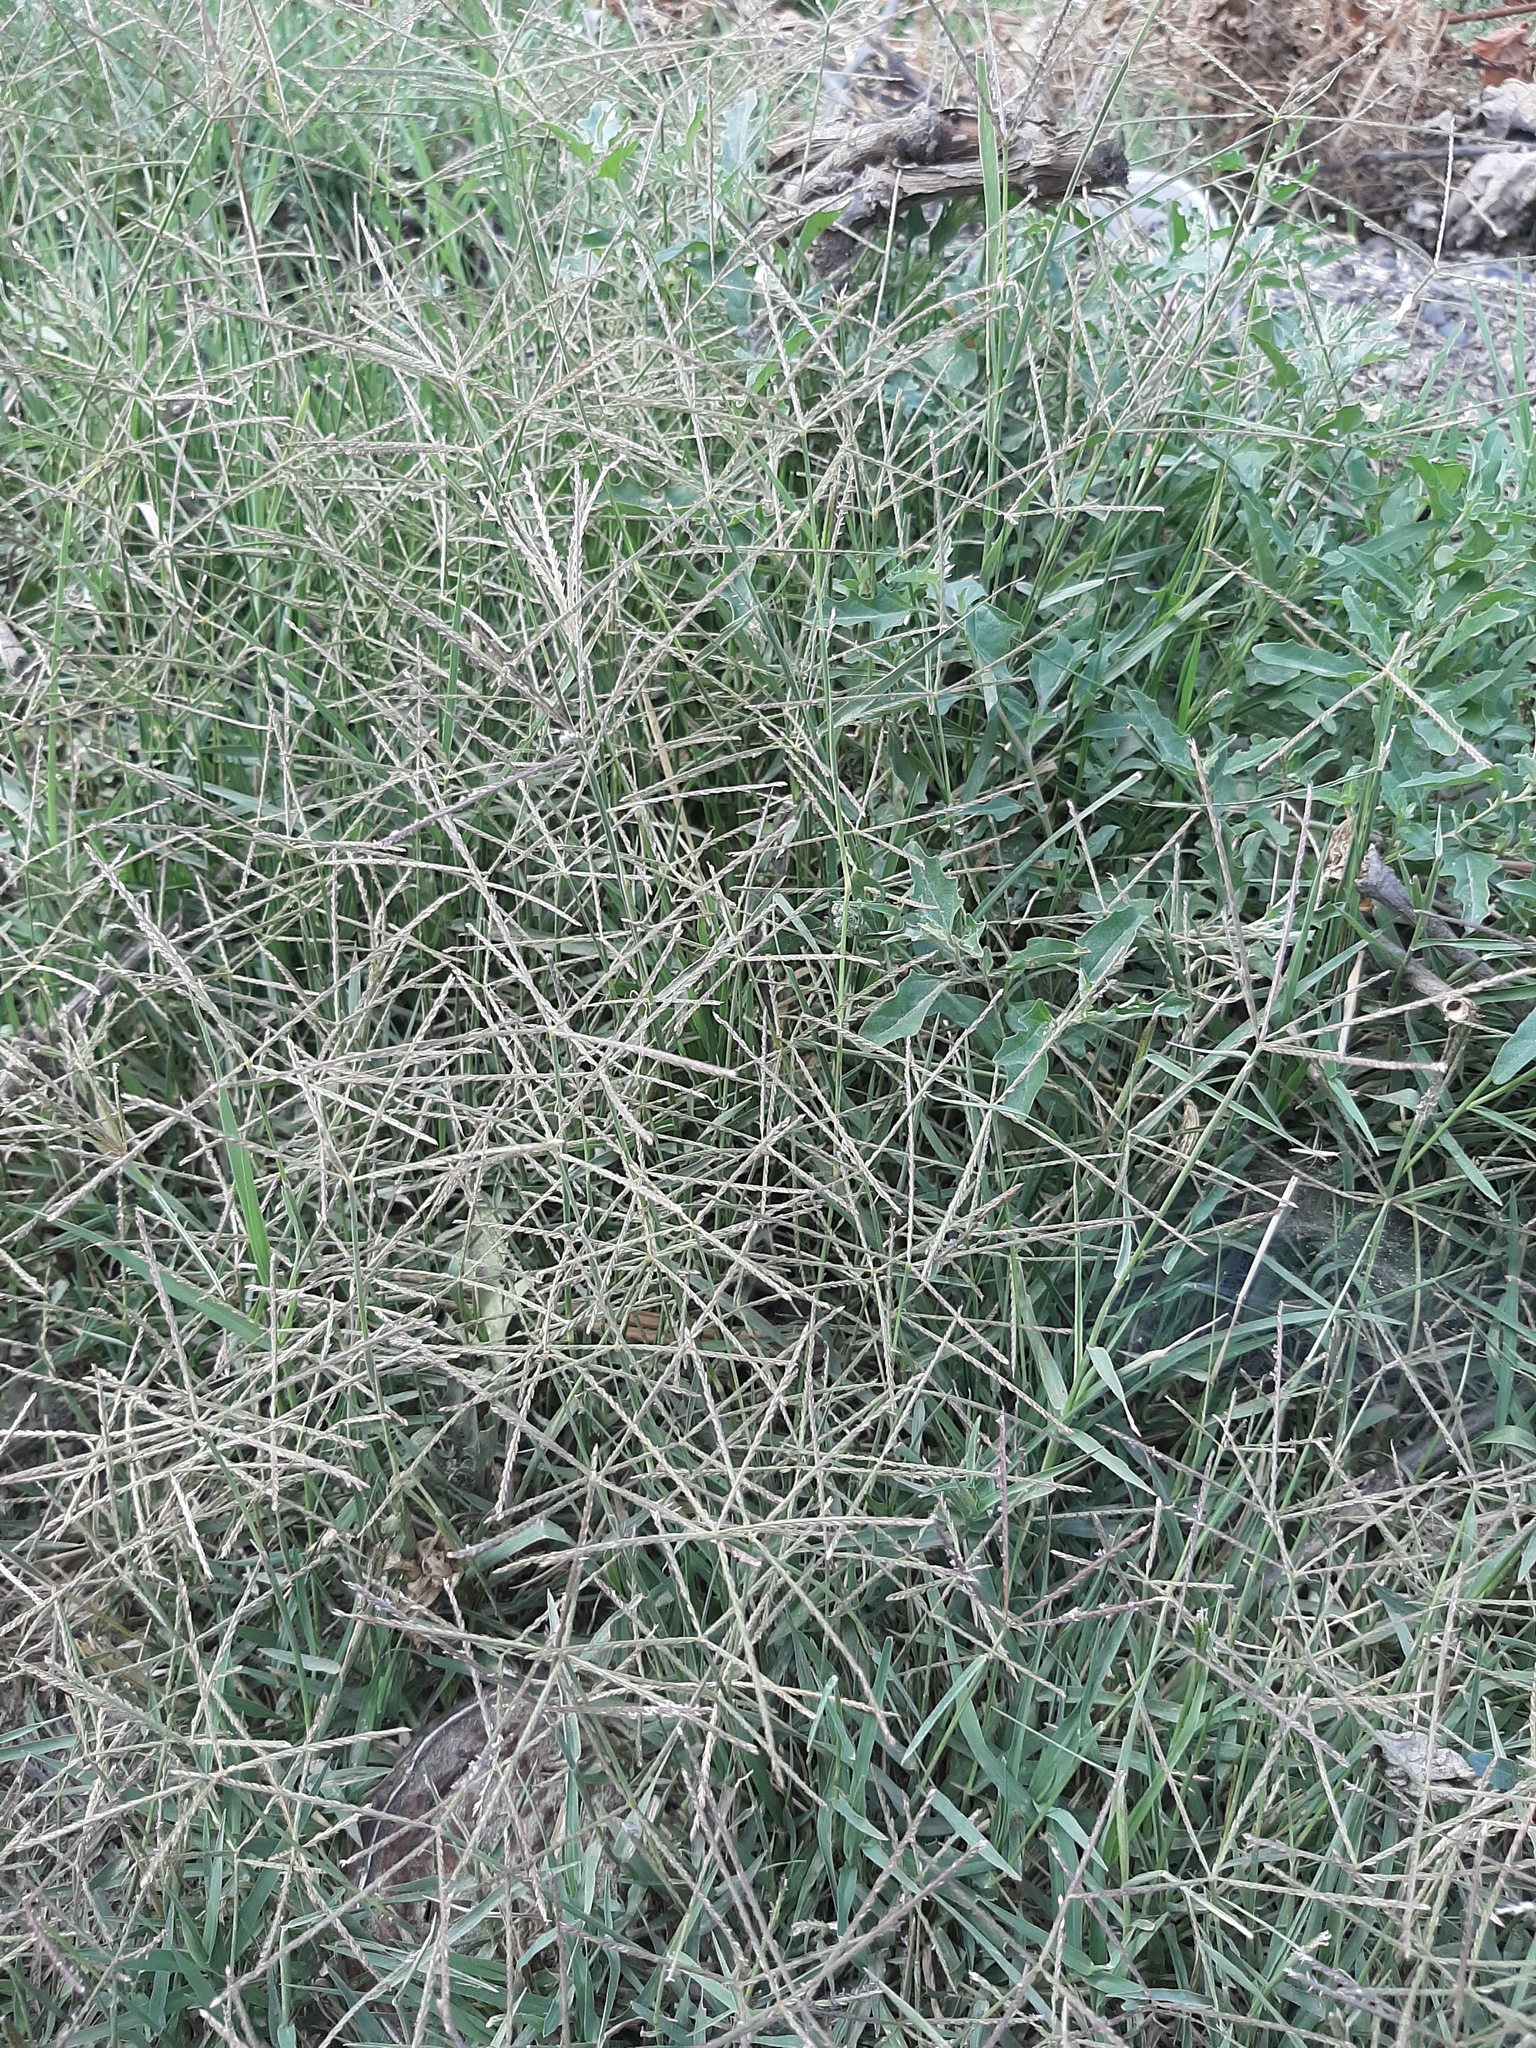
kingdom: Plantae
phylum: Tracheophyta
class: Liliopsida
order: Poales
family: Poaceae
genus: Cynodon
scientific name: Cynodon dactylon
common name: Bermuda grass
